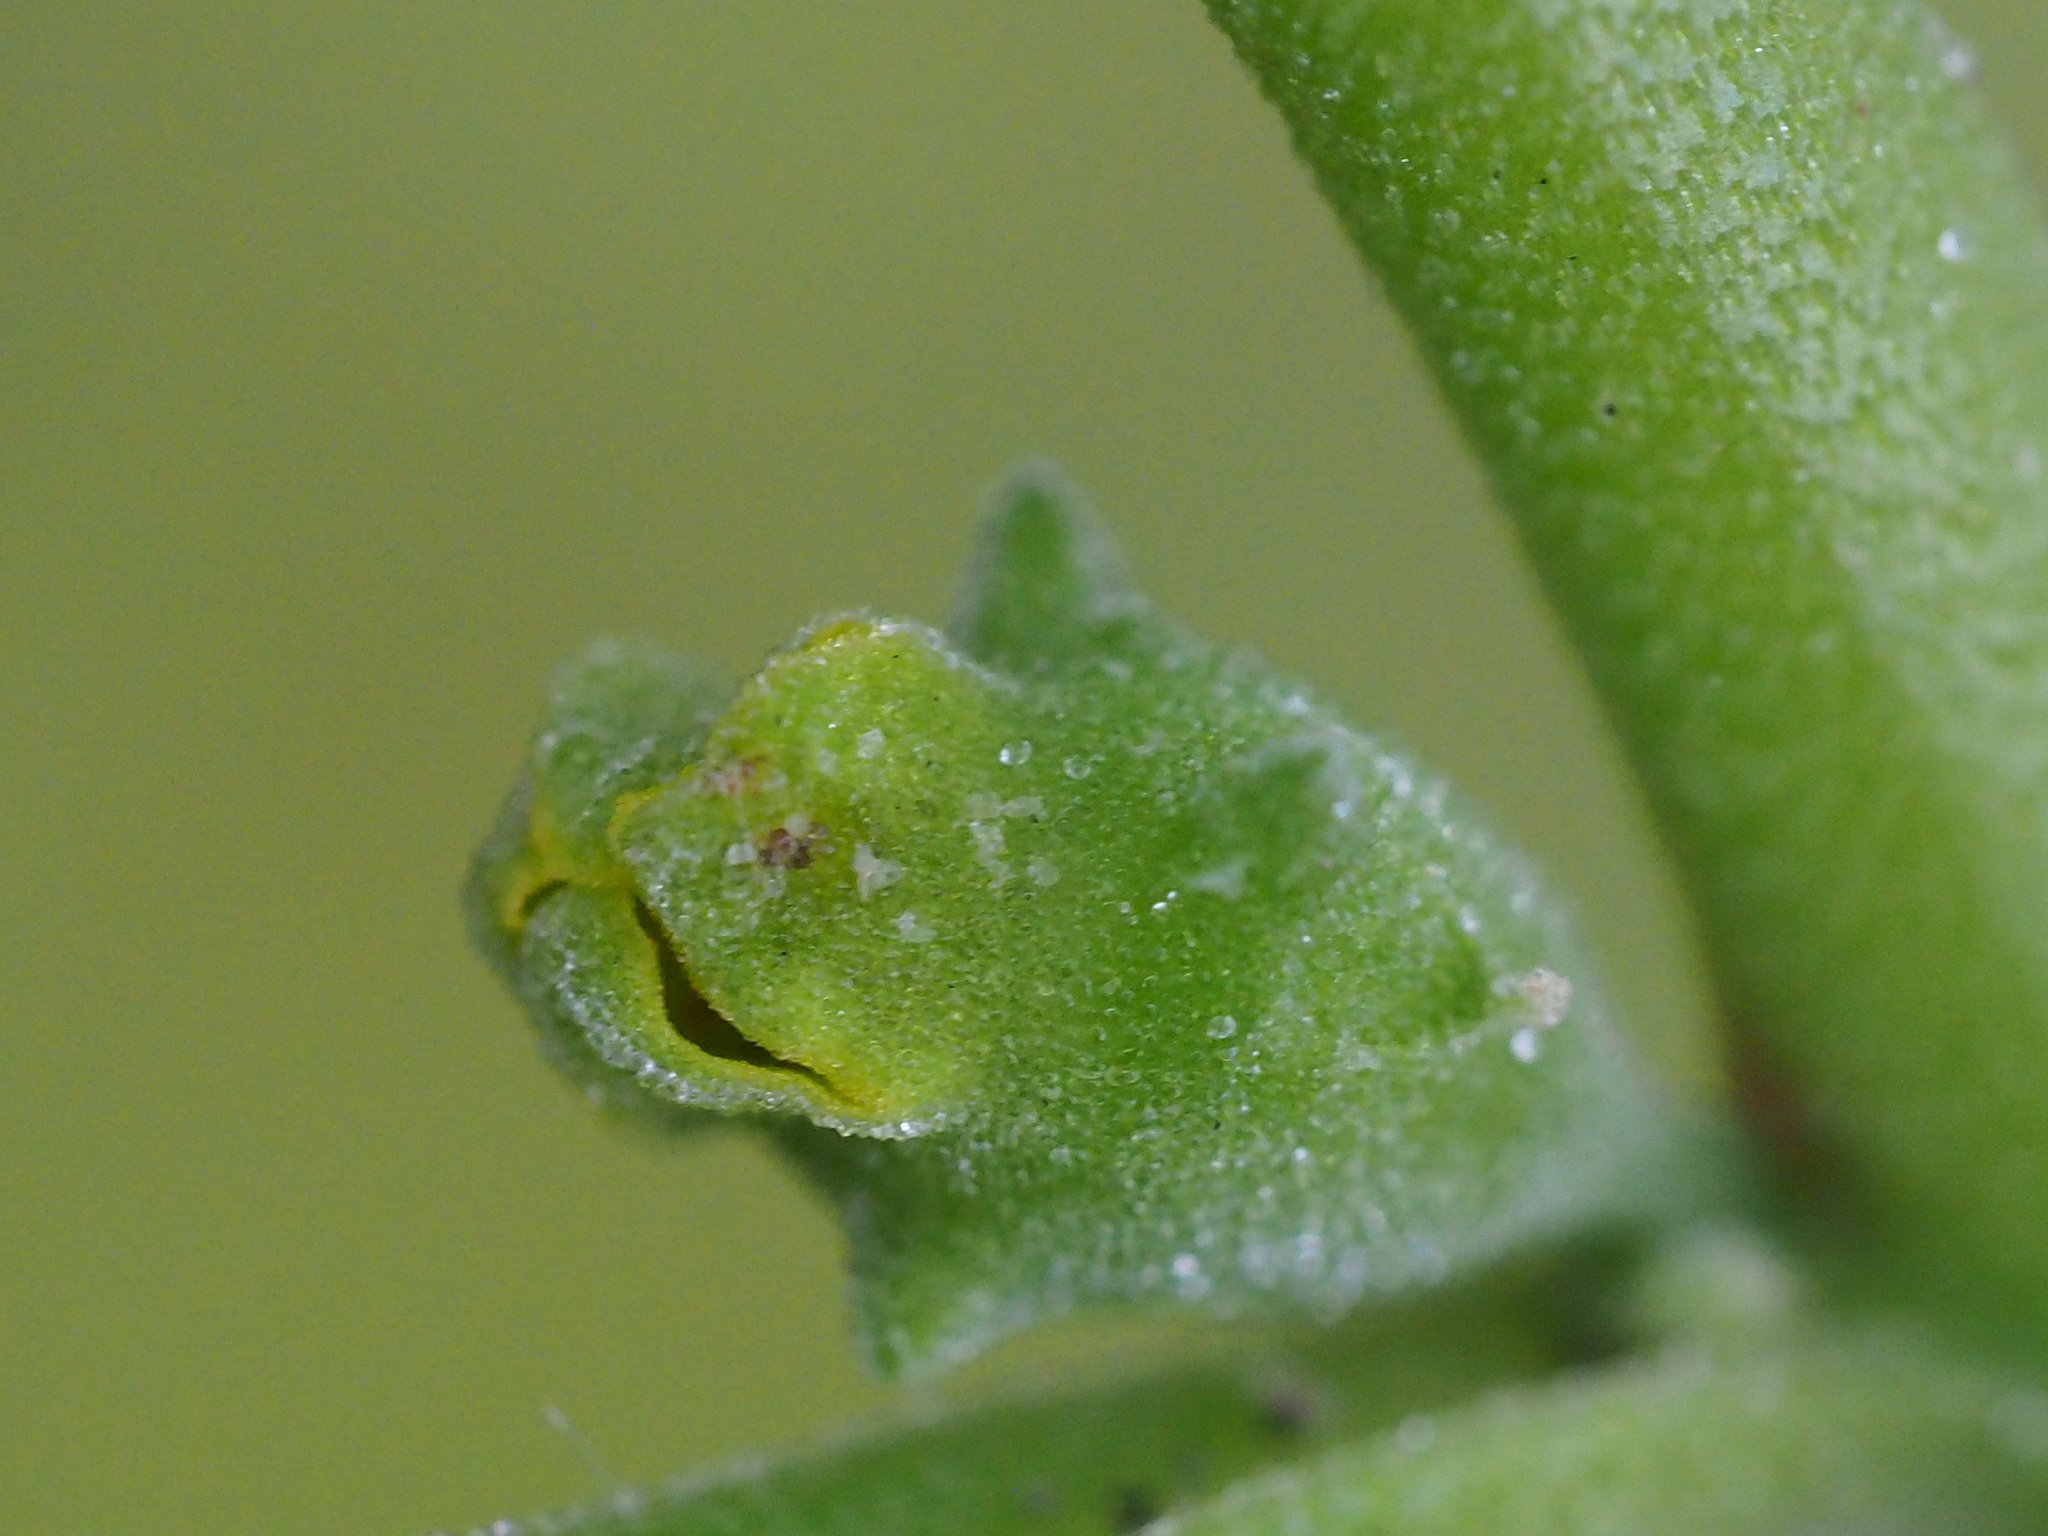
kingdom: Plantae
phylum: Tracheophyta
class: Magnoliopsida
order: Caryophyllales
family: Aizoaceae
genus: Tetragonia
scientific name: Tetragonia tetragonoides
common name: New zealand-spinach
